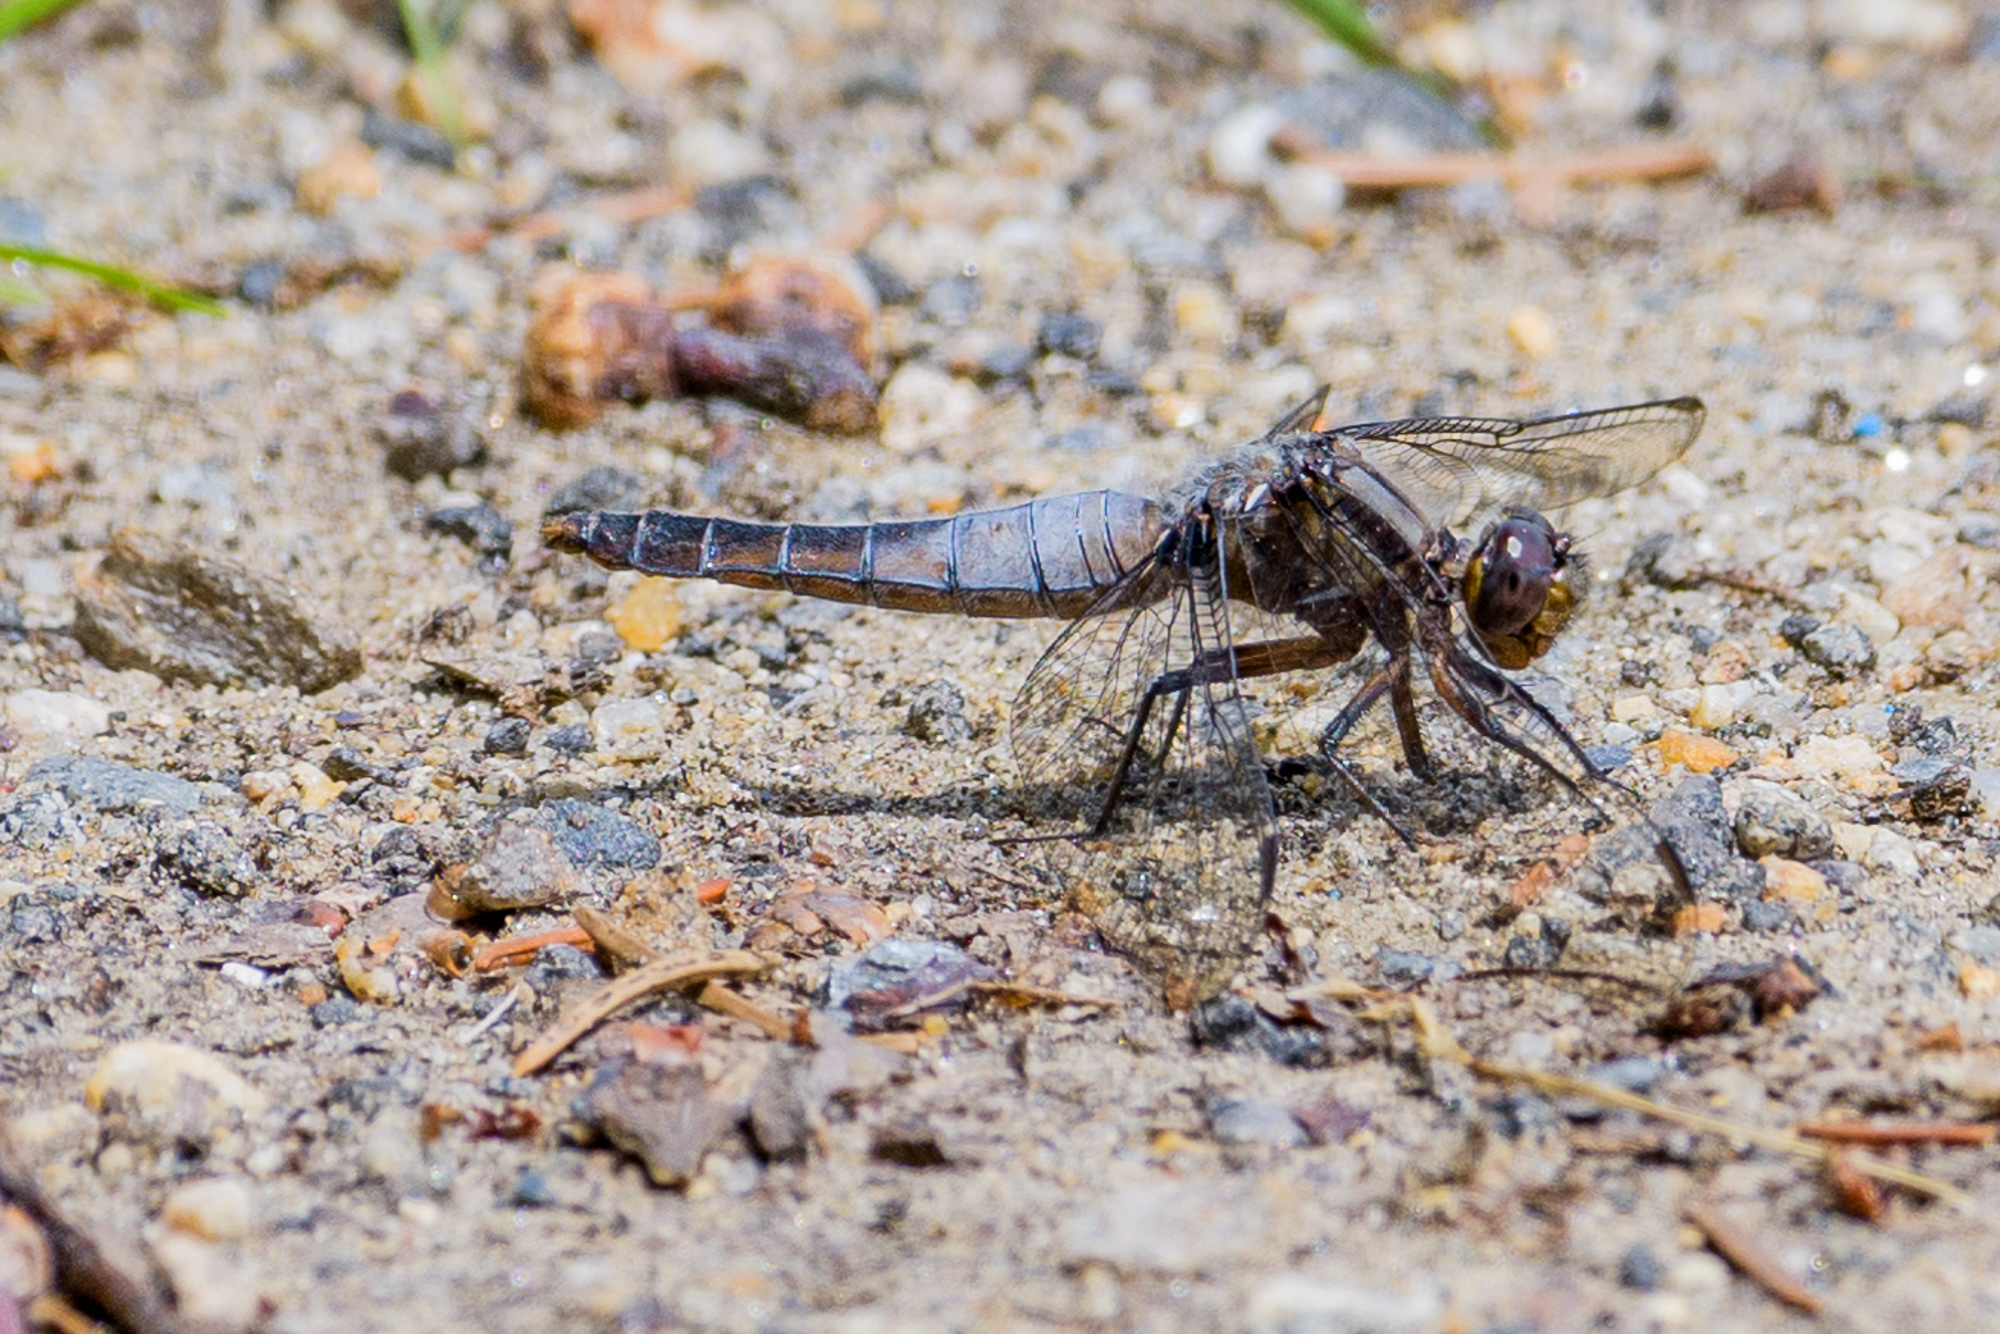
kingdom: Animalia
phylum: Arthropoda
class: Insecta
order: Odonata
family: Libellulidae
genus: Ladona
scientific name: Ladona julia
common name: Chalk-fronted corporal
